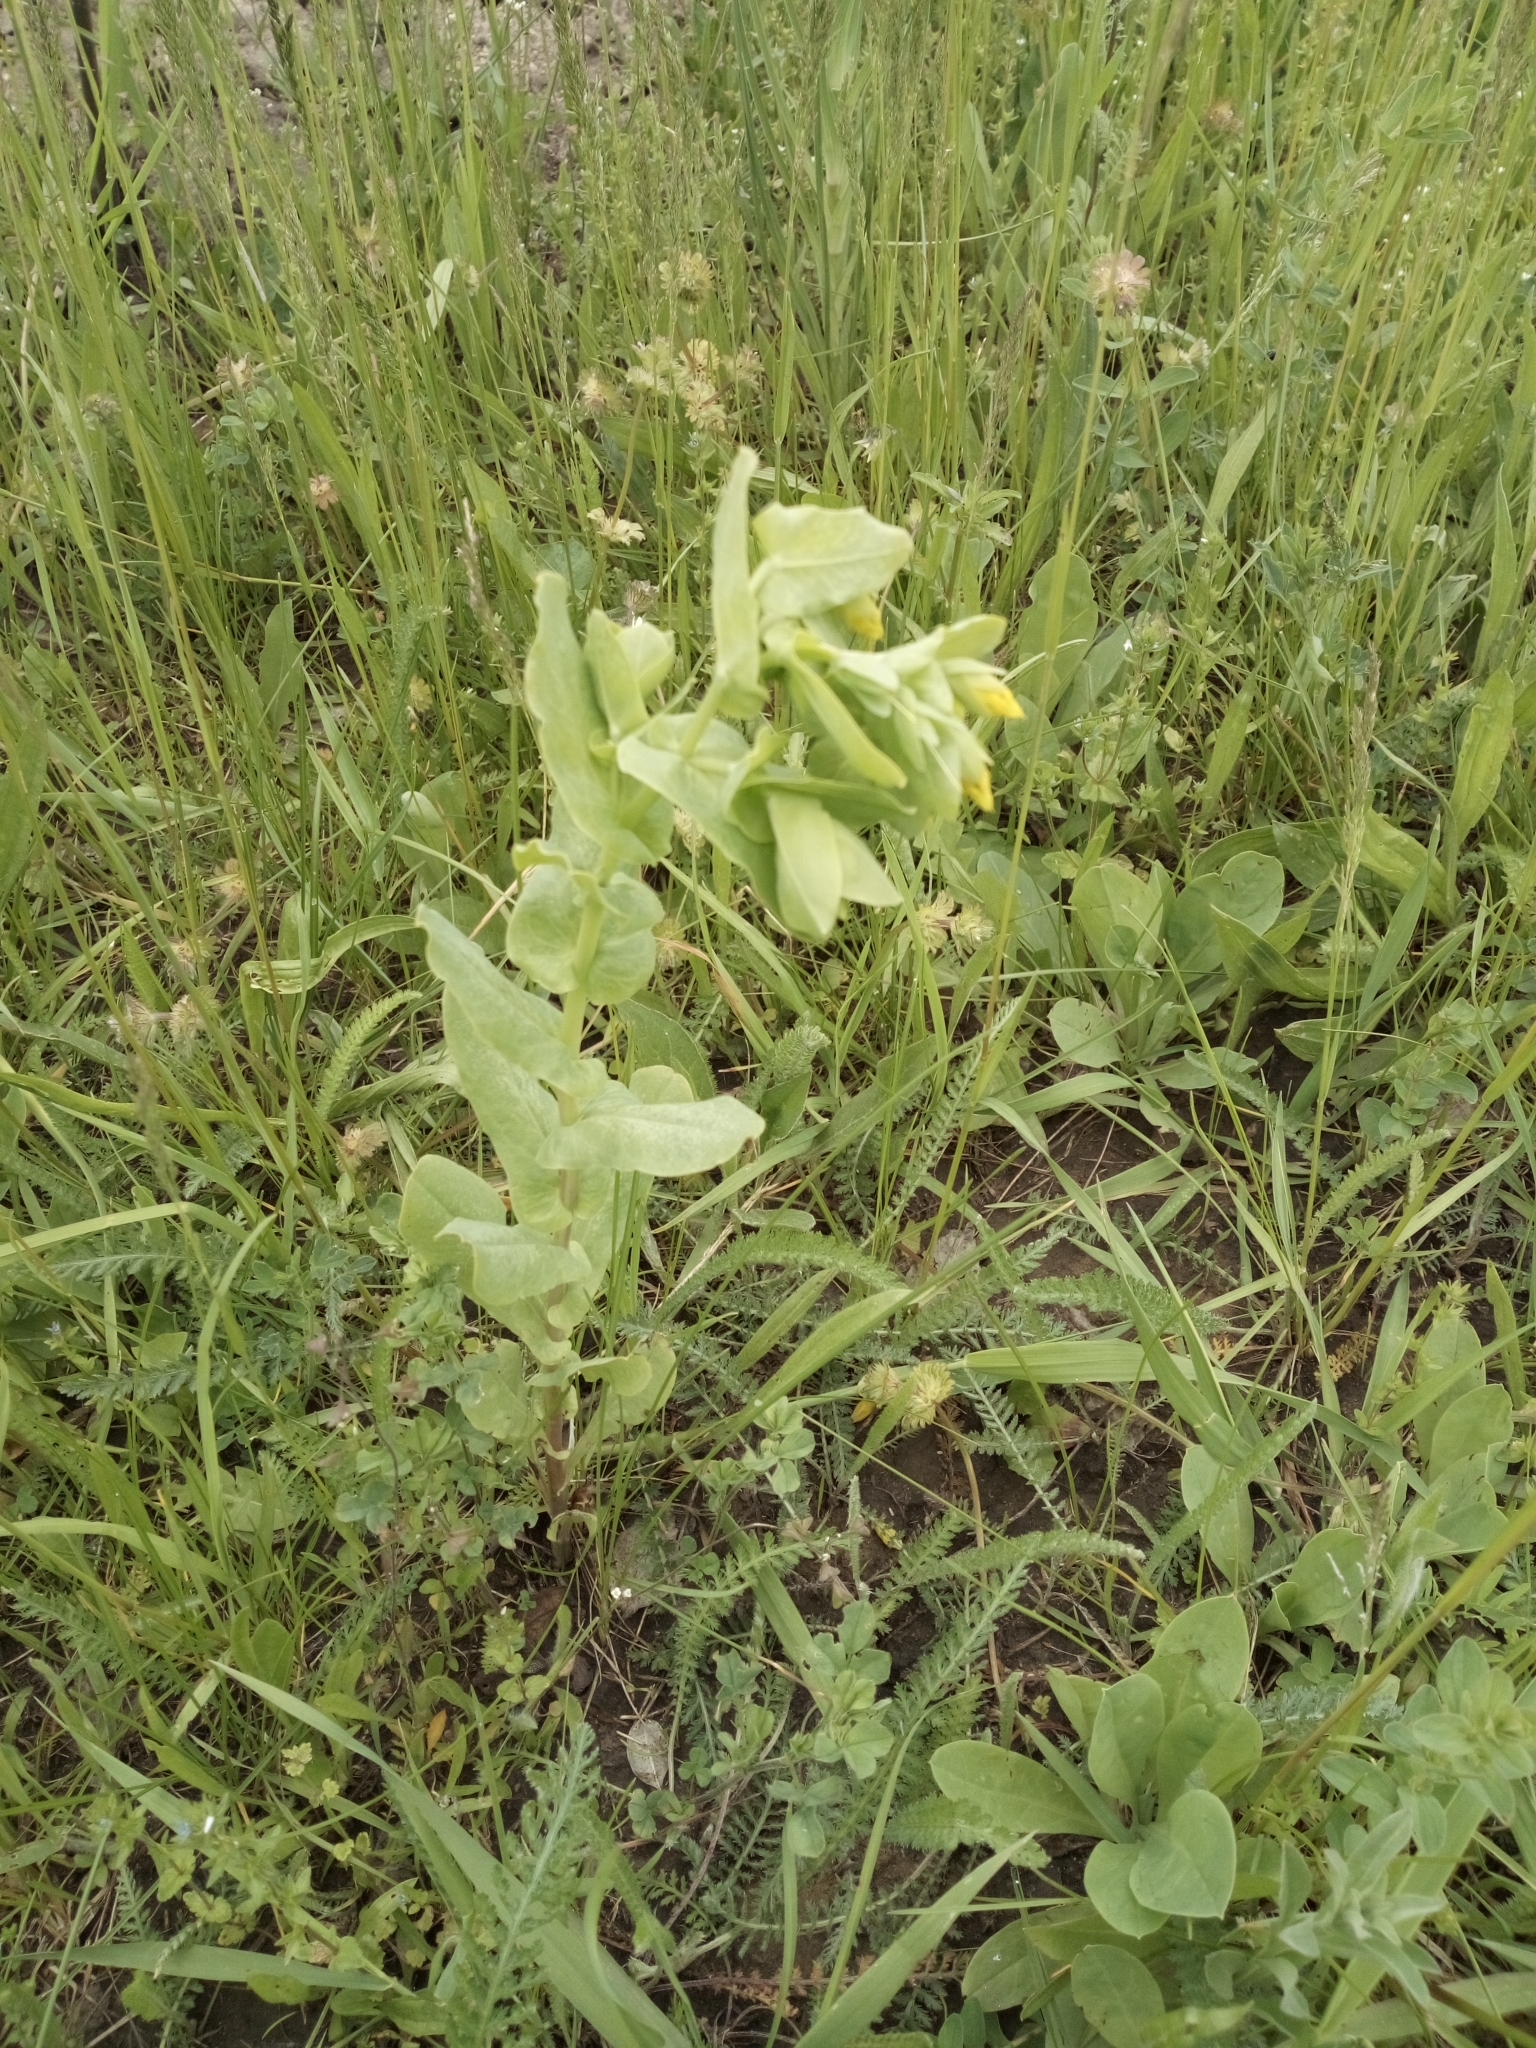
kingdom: Plantae
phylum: Tracheophyta
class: Magnoliopsida
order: Boraginales
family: Boraginaceae
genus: Cerinthe
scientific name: Cerinthe minor
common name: Lesser honeywort
